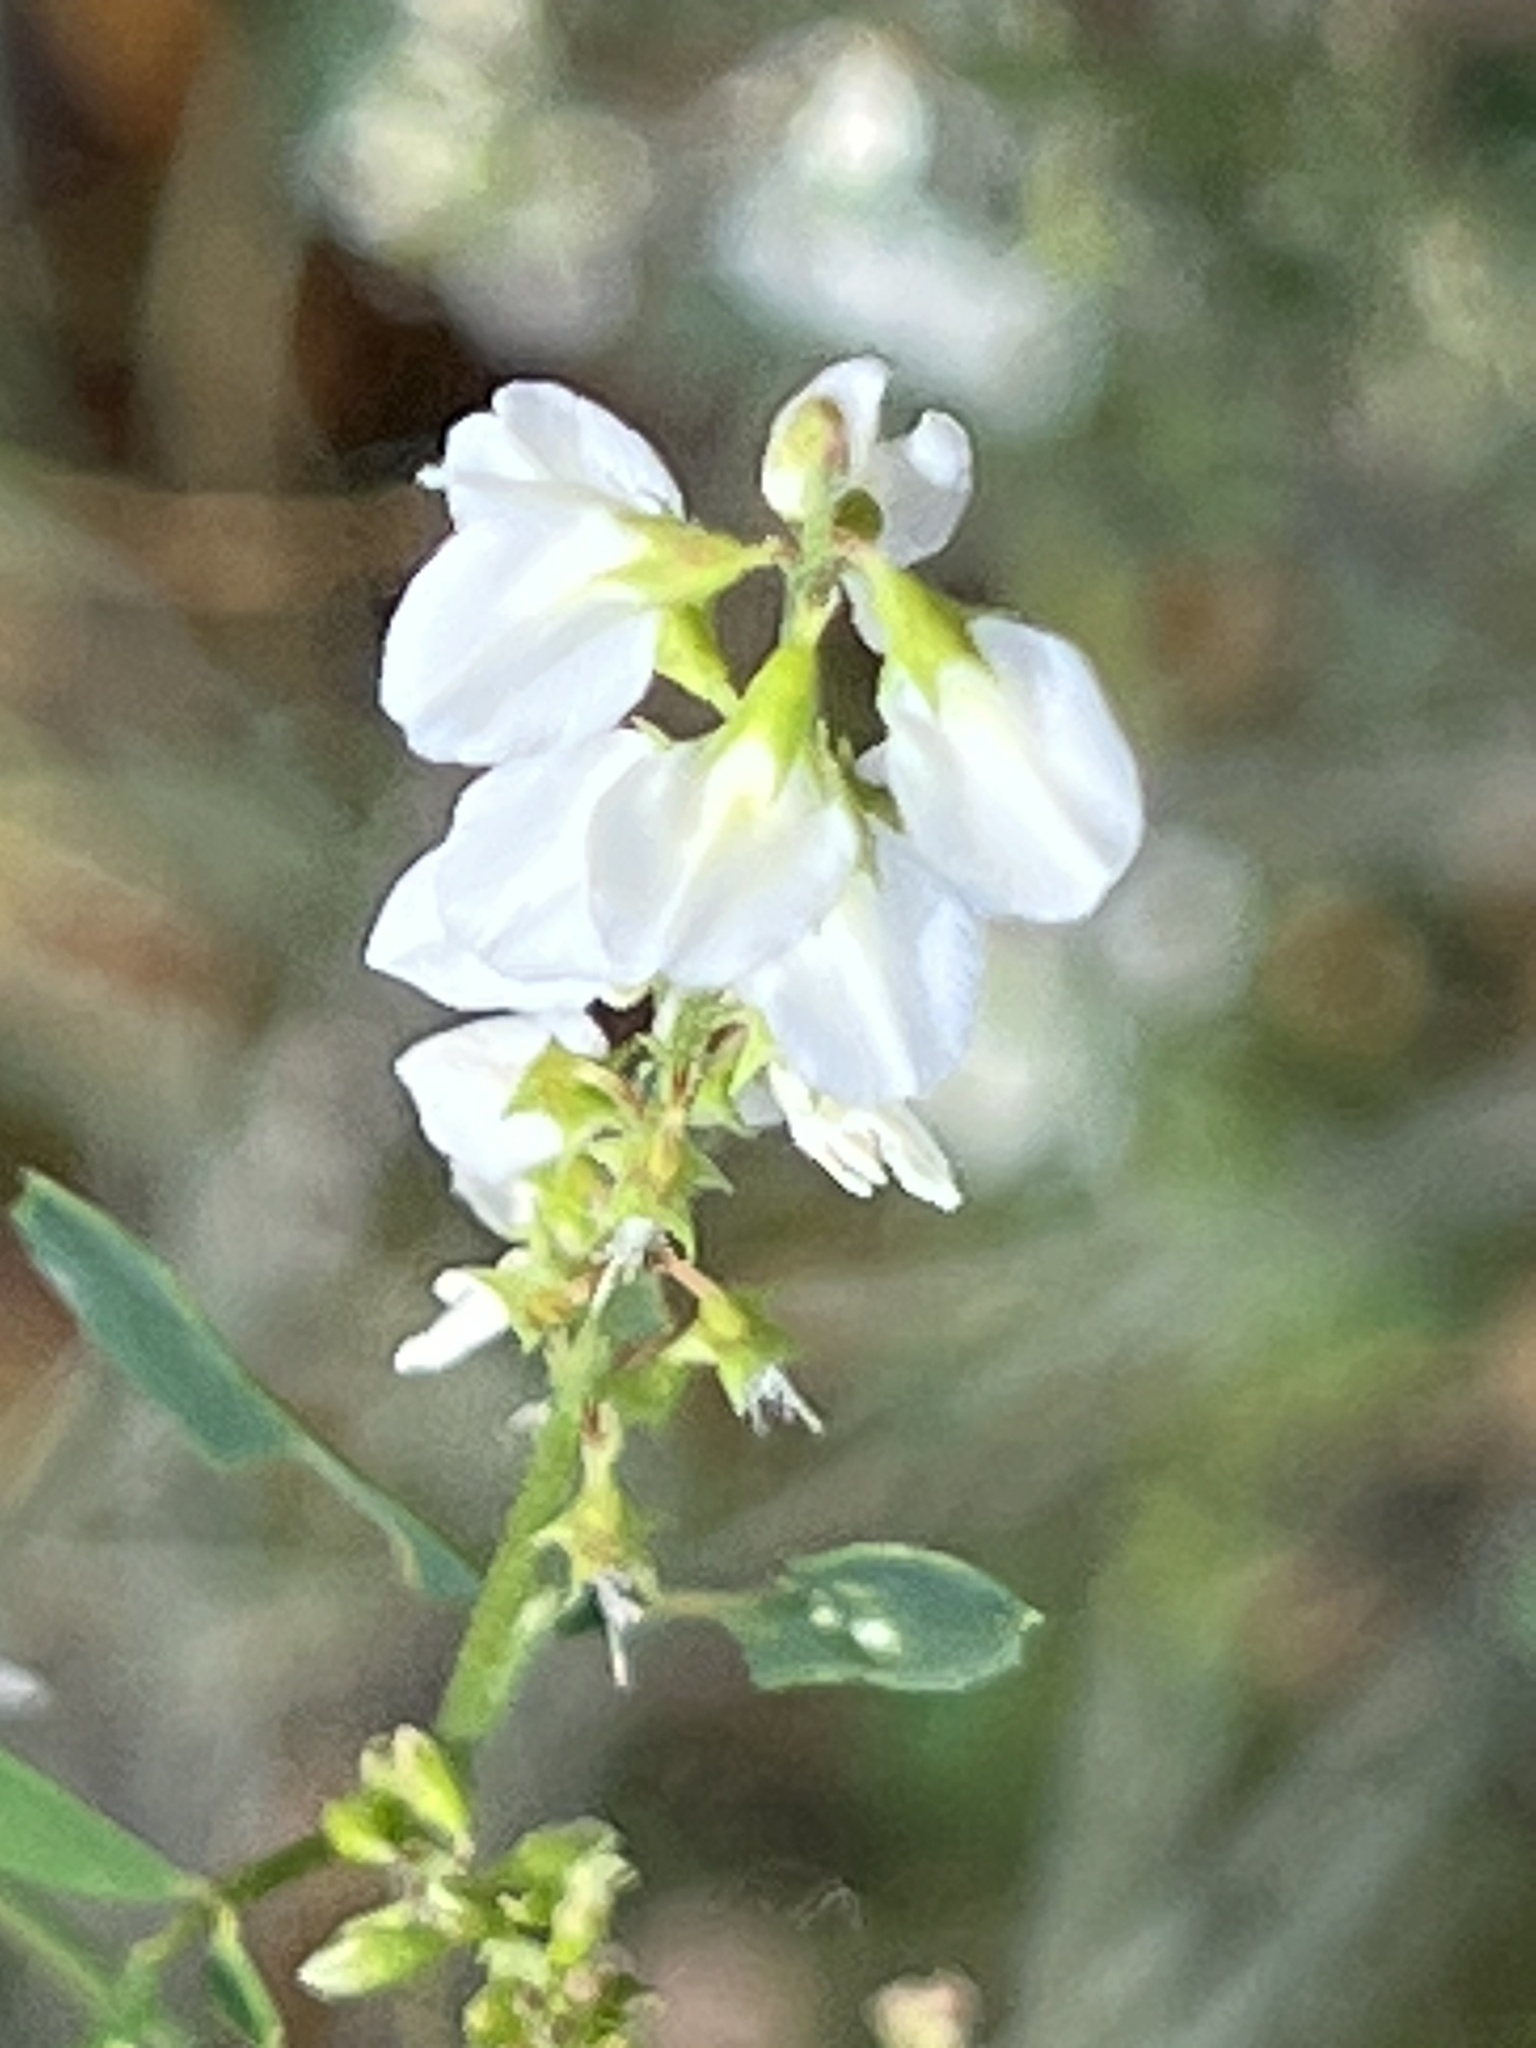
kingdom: Plantae
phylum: Tracheophyta
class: Magnoliopsida
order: Fabales
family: Fabaceae
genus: Melilotus
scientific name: Melilotus albus
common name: White melilot
